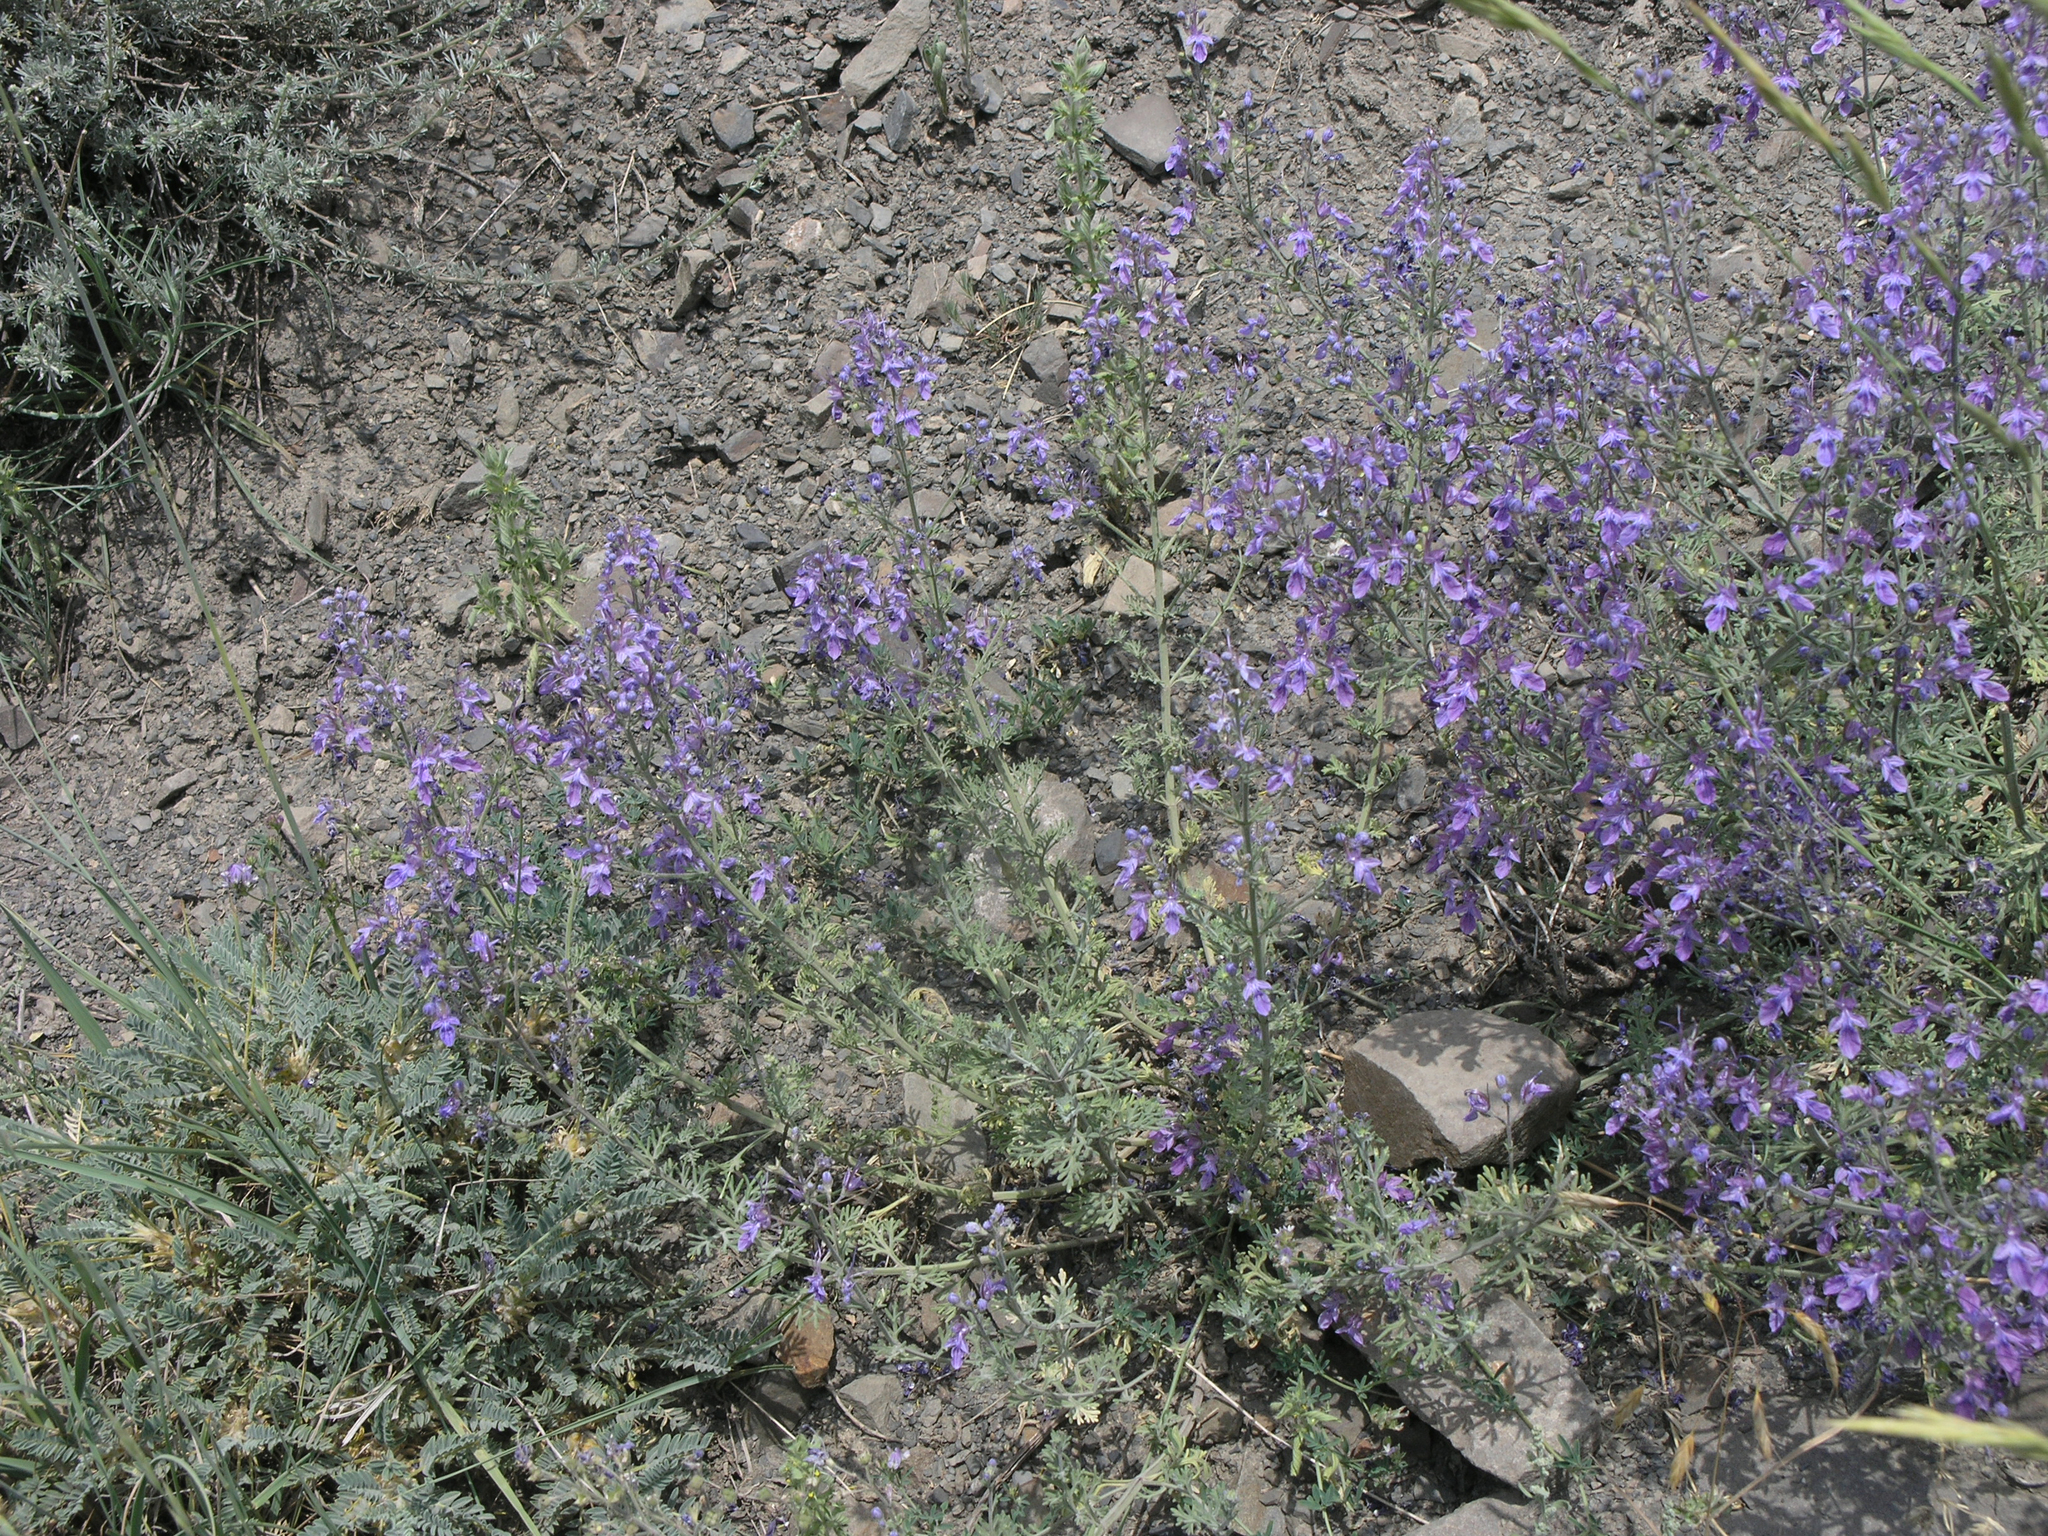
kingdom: Plantae
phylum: Tracheophyta
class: Magnoliopsida
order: Lamiales
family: Lamiaceae
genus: Teucrium
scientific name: Teucrium orientale
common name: Oriental germander
